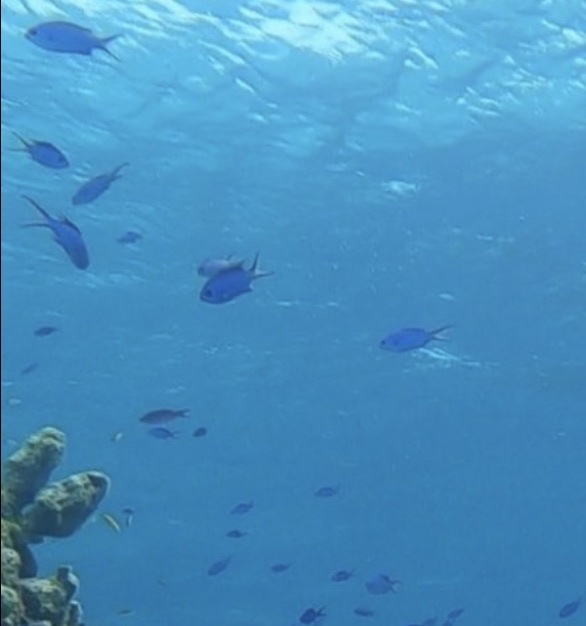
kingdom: Animalia
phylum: Chordata
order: Perciformes
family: Pomacentridae
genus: Chromis
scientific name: Chromis cyanea
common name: Blue chromis
